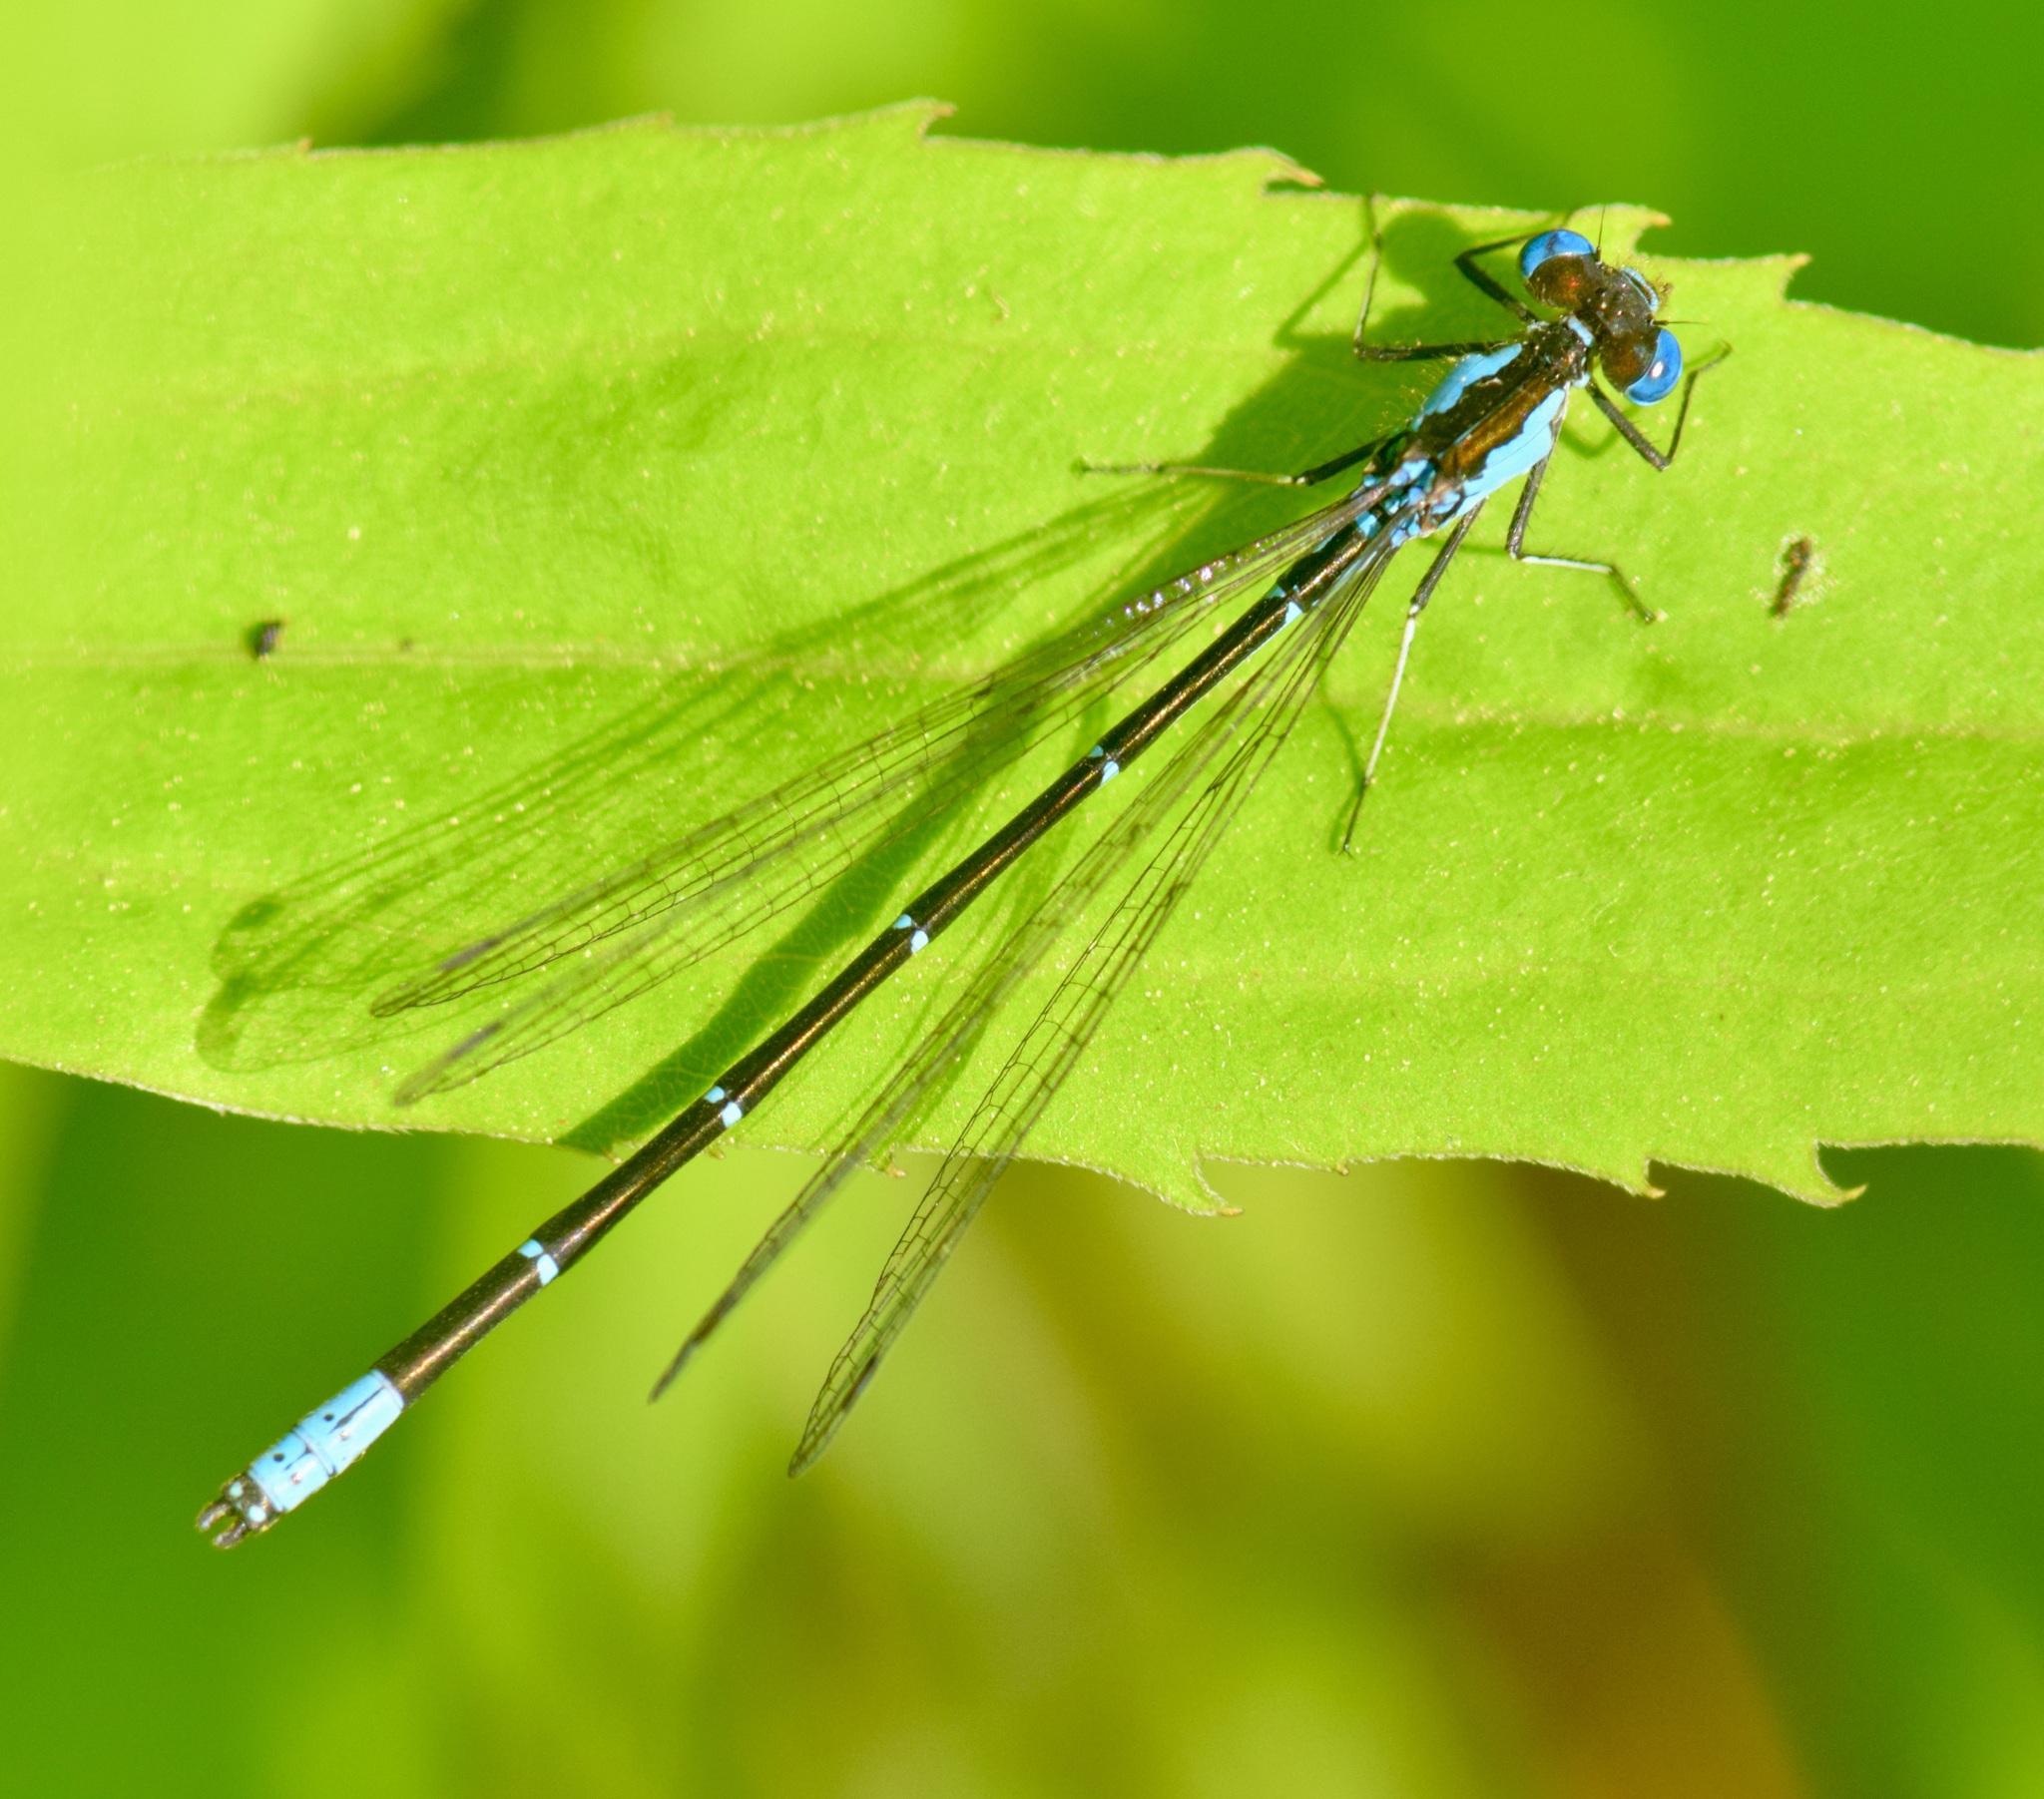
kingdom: Animalia
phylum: Arthropoda
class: Insecta
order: Odonata
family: Coenagrionidae
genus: Chromagrion
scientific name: Chromagrion conditum
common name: Aurora damsel
